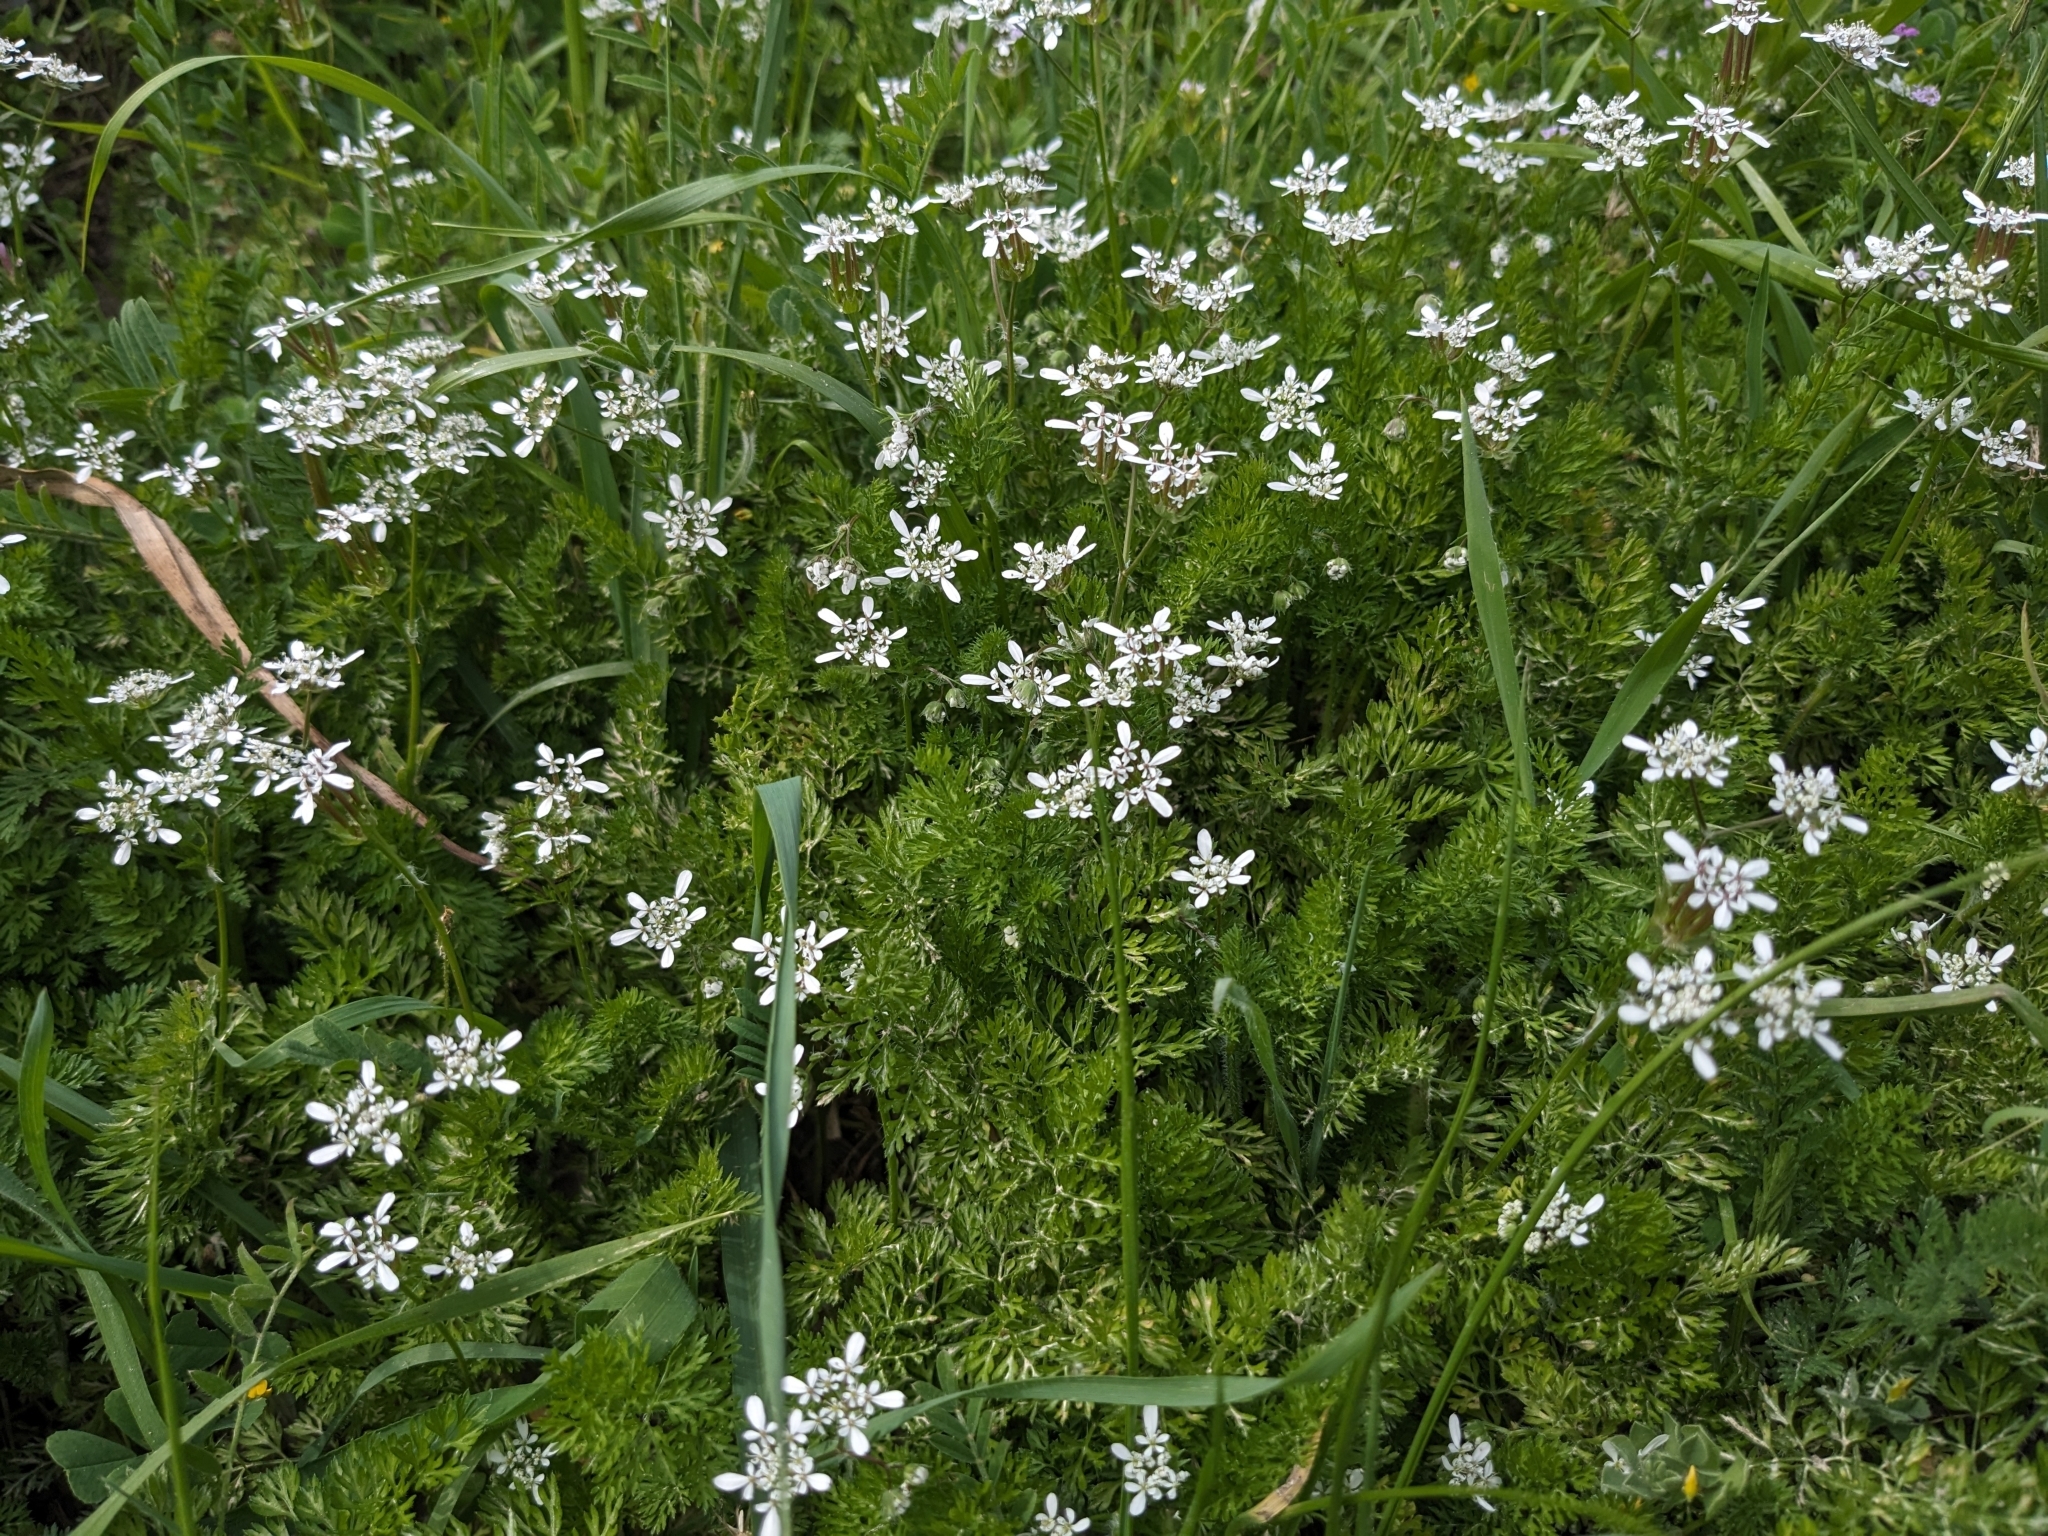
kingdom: Plantae
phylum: Tracheophyta
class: Magnoliopsida
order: Apiales
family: Apiaceae
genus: Scandix
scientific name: Scandix pecten-veneris
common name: Shepherd's-needle
